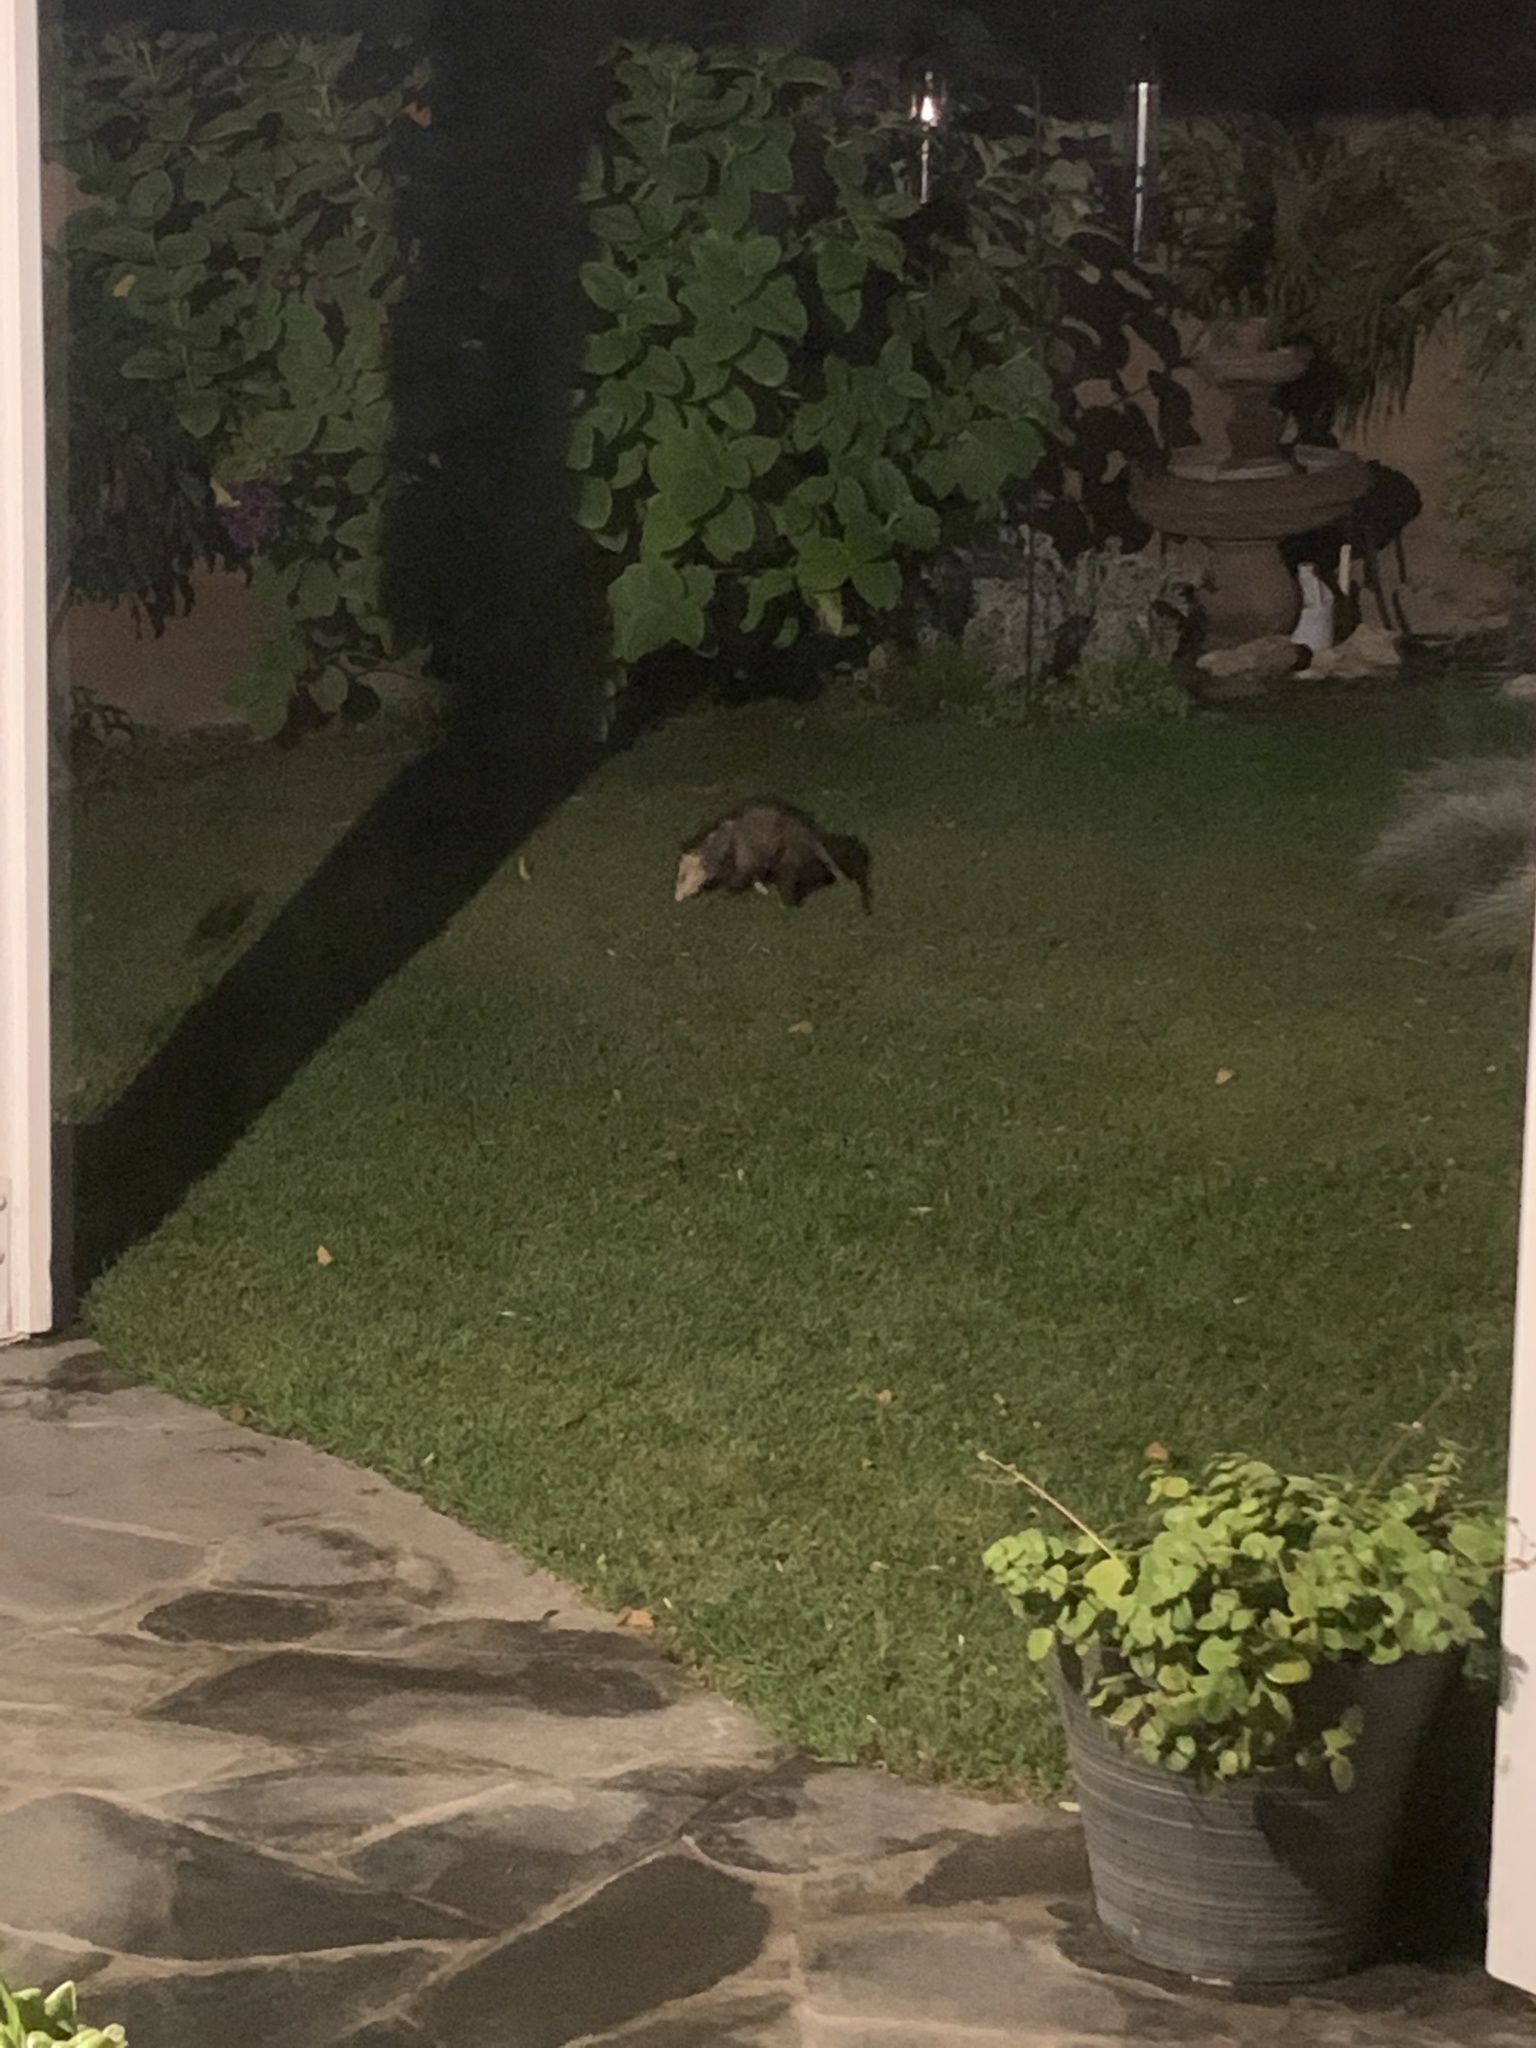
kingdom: Animalia
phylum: Chordata
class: Mammalia
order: Didelphimorphia
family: Didelphidae
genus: Didelphis
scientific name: Didelphis virginiana
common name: Virginia opossum
